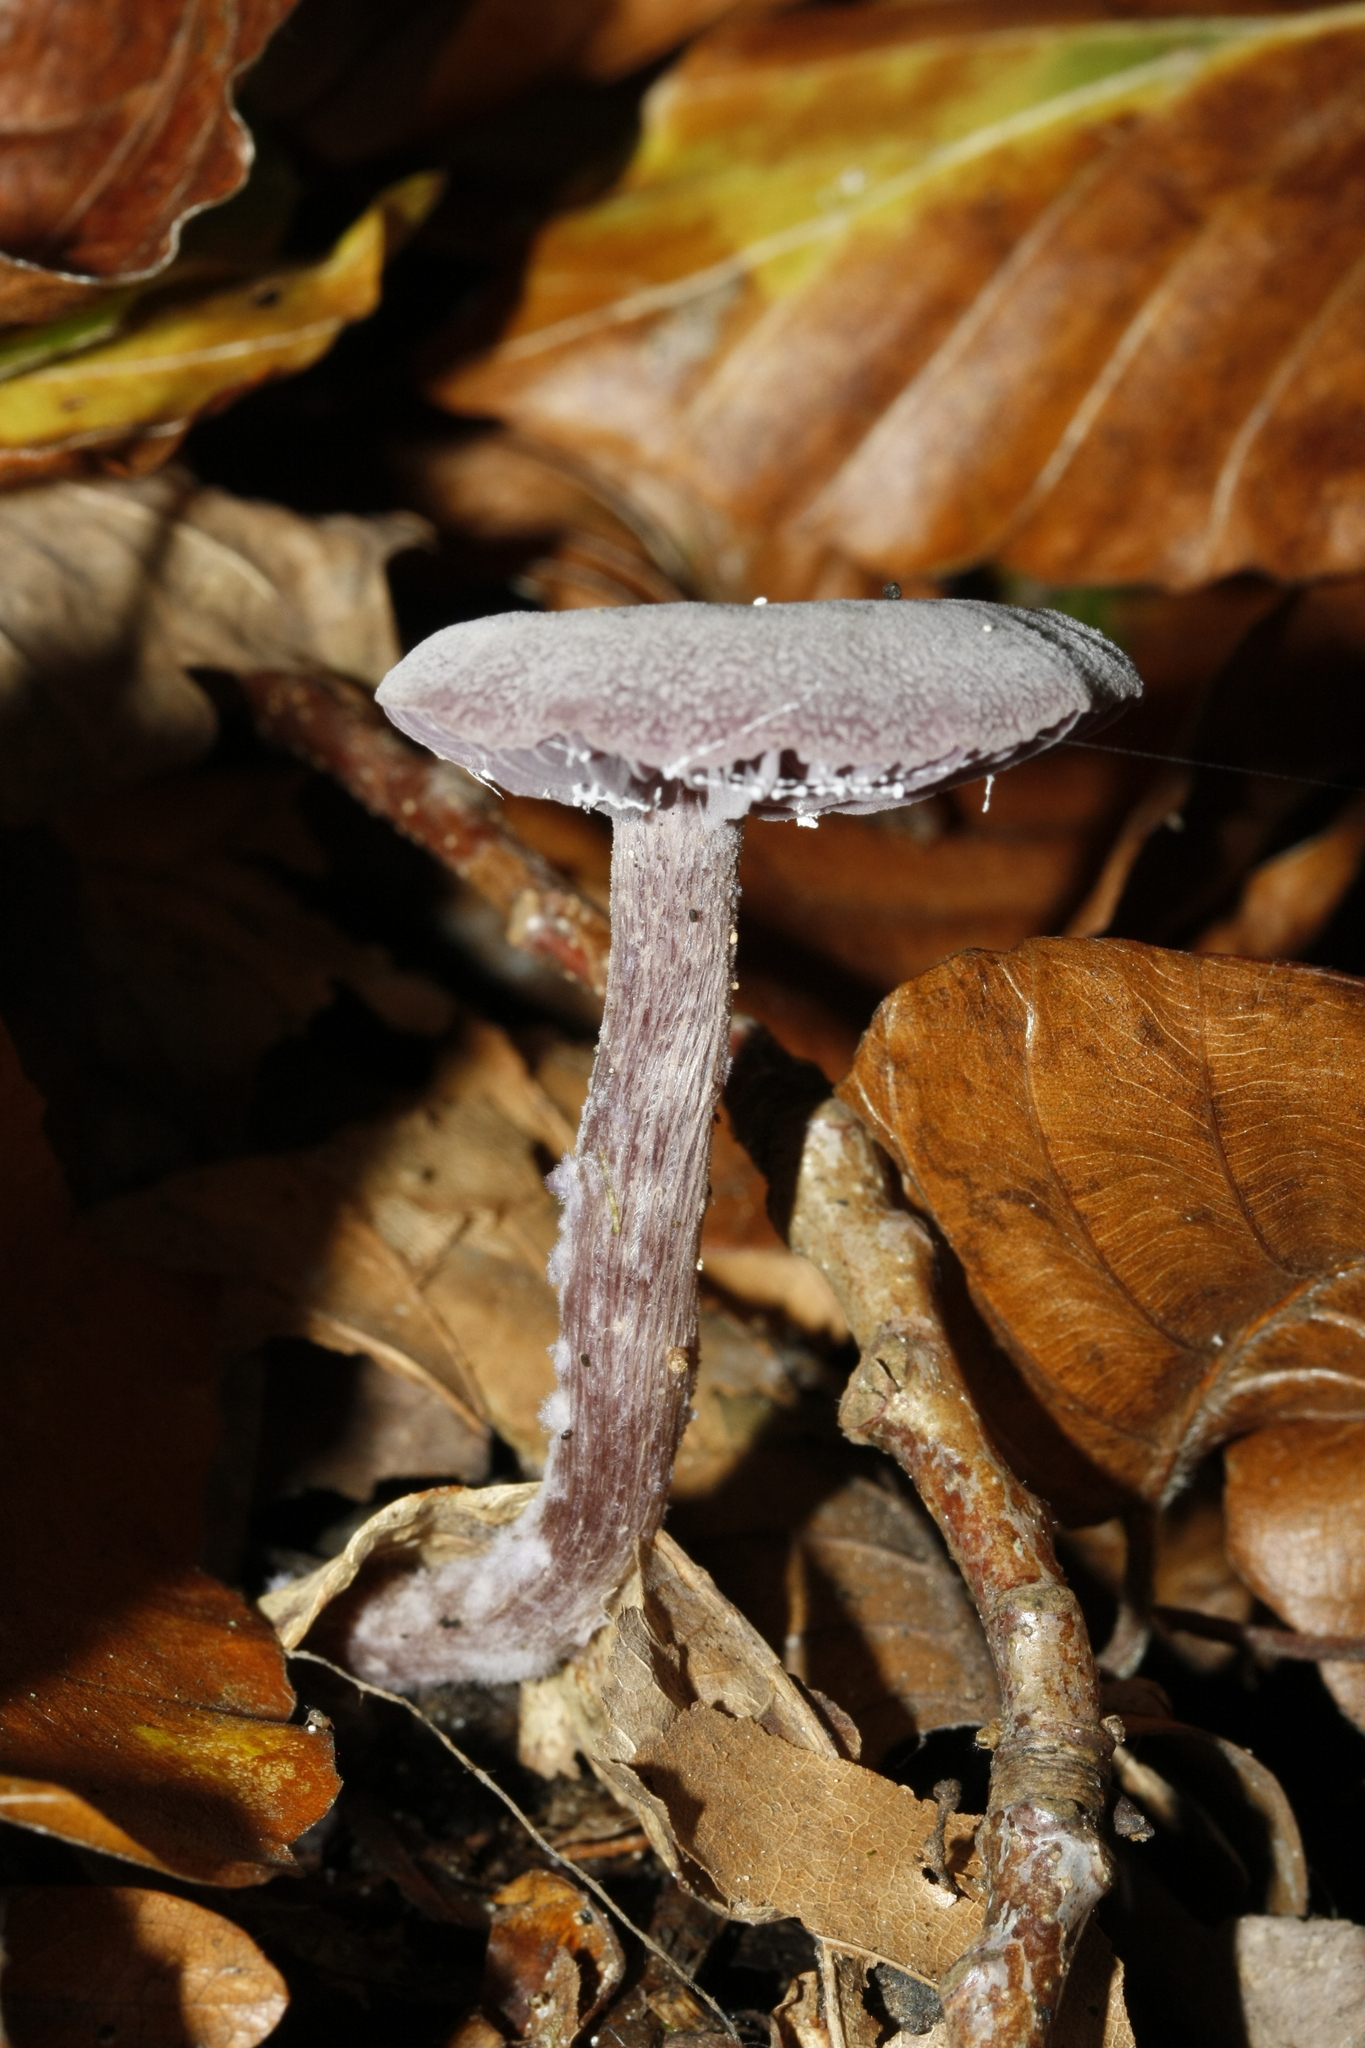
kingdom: Fungi
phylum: Basidiomycota
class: Agaricomycetes
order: Agaricales
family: Hydnangiaceae
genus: Laccaria
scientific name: Laccaria amethystina
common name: Amethyst deceiver
